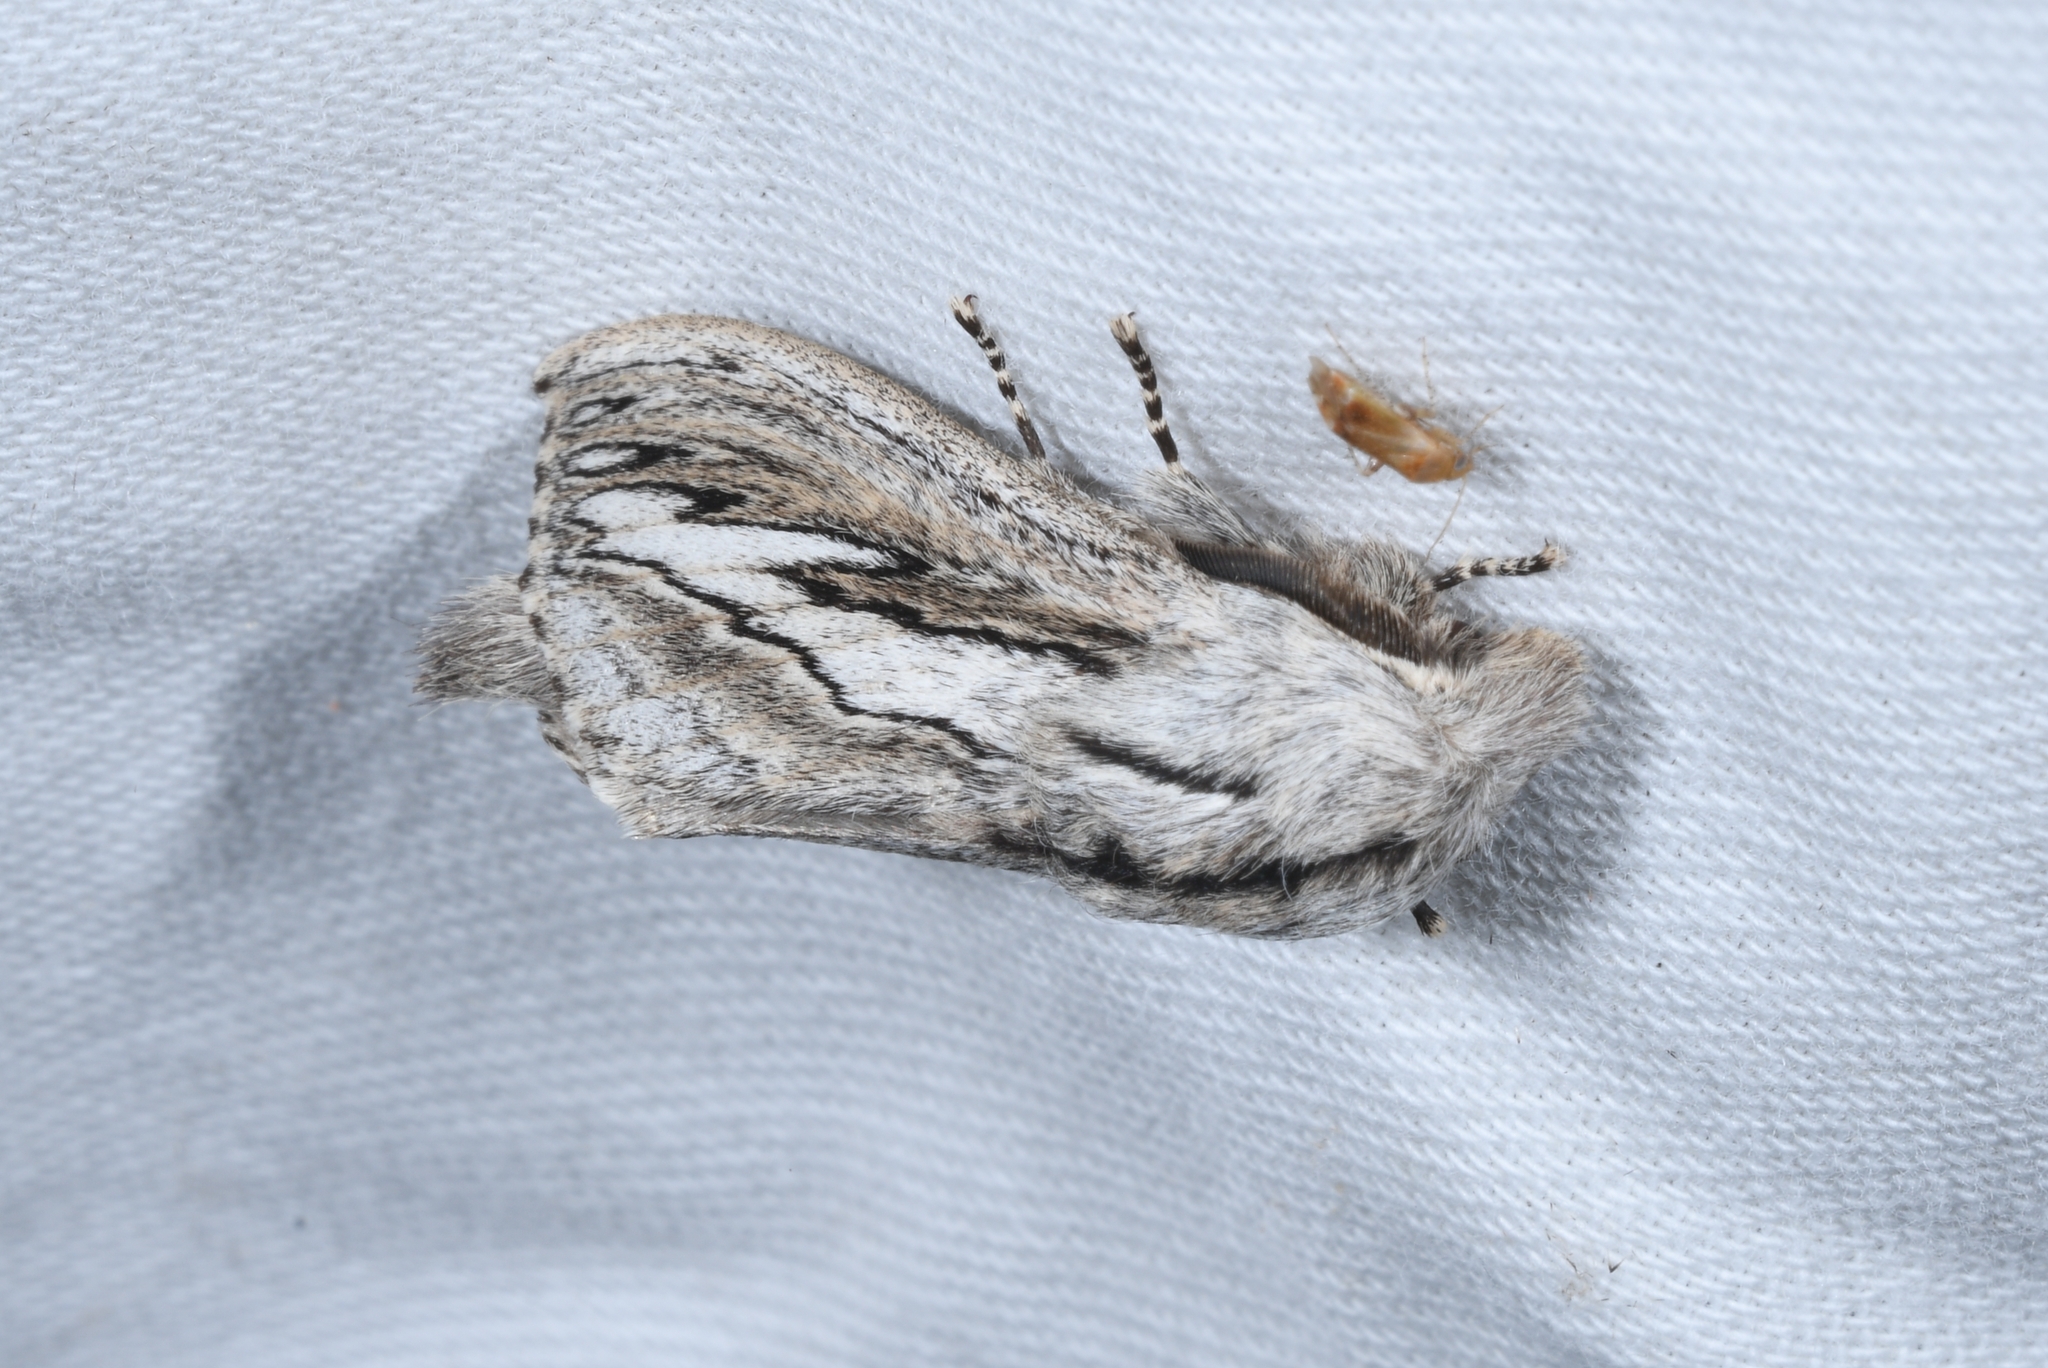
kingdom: Animalia
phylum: Arthropoda
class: Insecta
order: Lepidoptera
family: Lasiocampidae
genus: Gufria
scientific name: Gufria limosa
